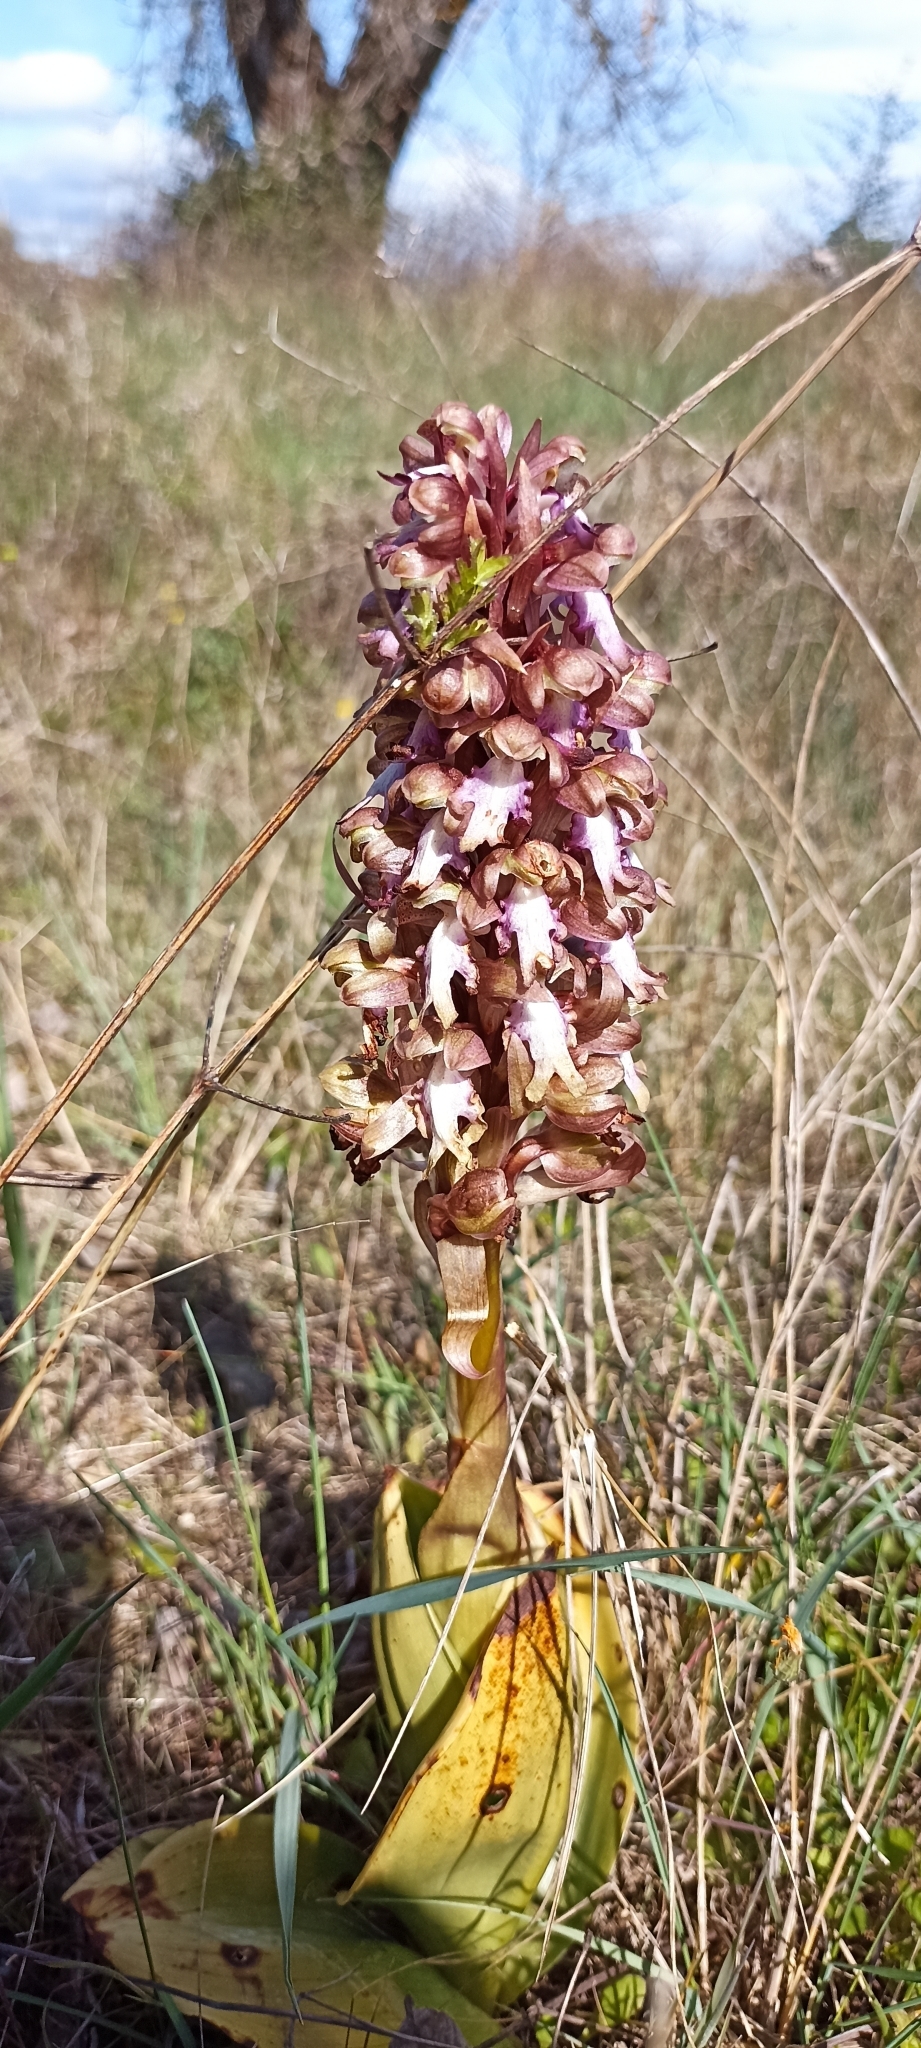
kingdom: Plantae
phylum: Tracheophyta
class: Liliopsida
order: Asparagales
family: Orchidaceae
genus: Himantoglossum
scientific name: Himantoglossum robertianum
